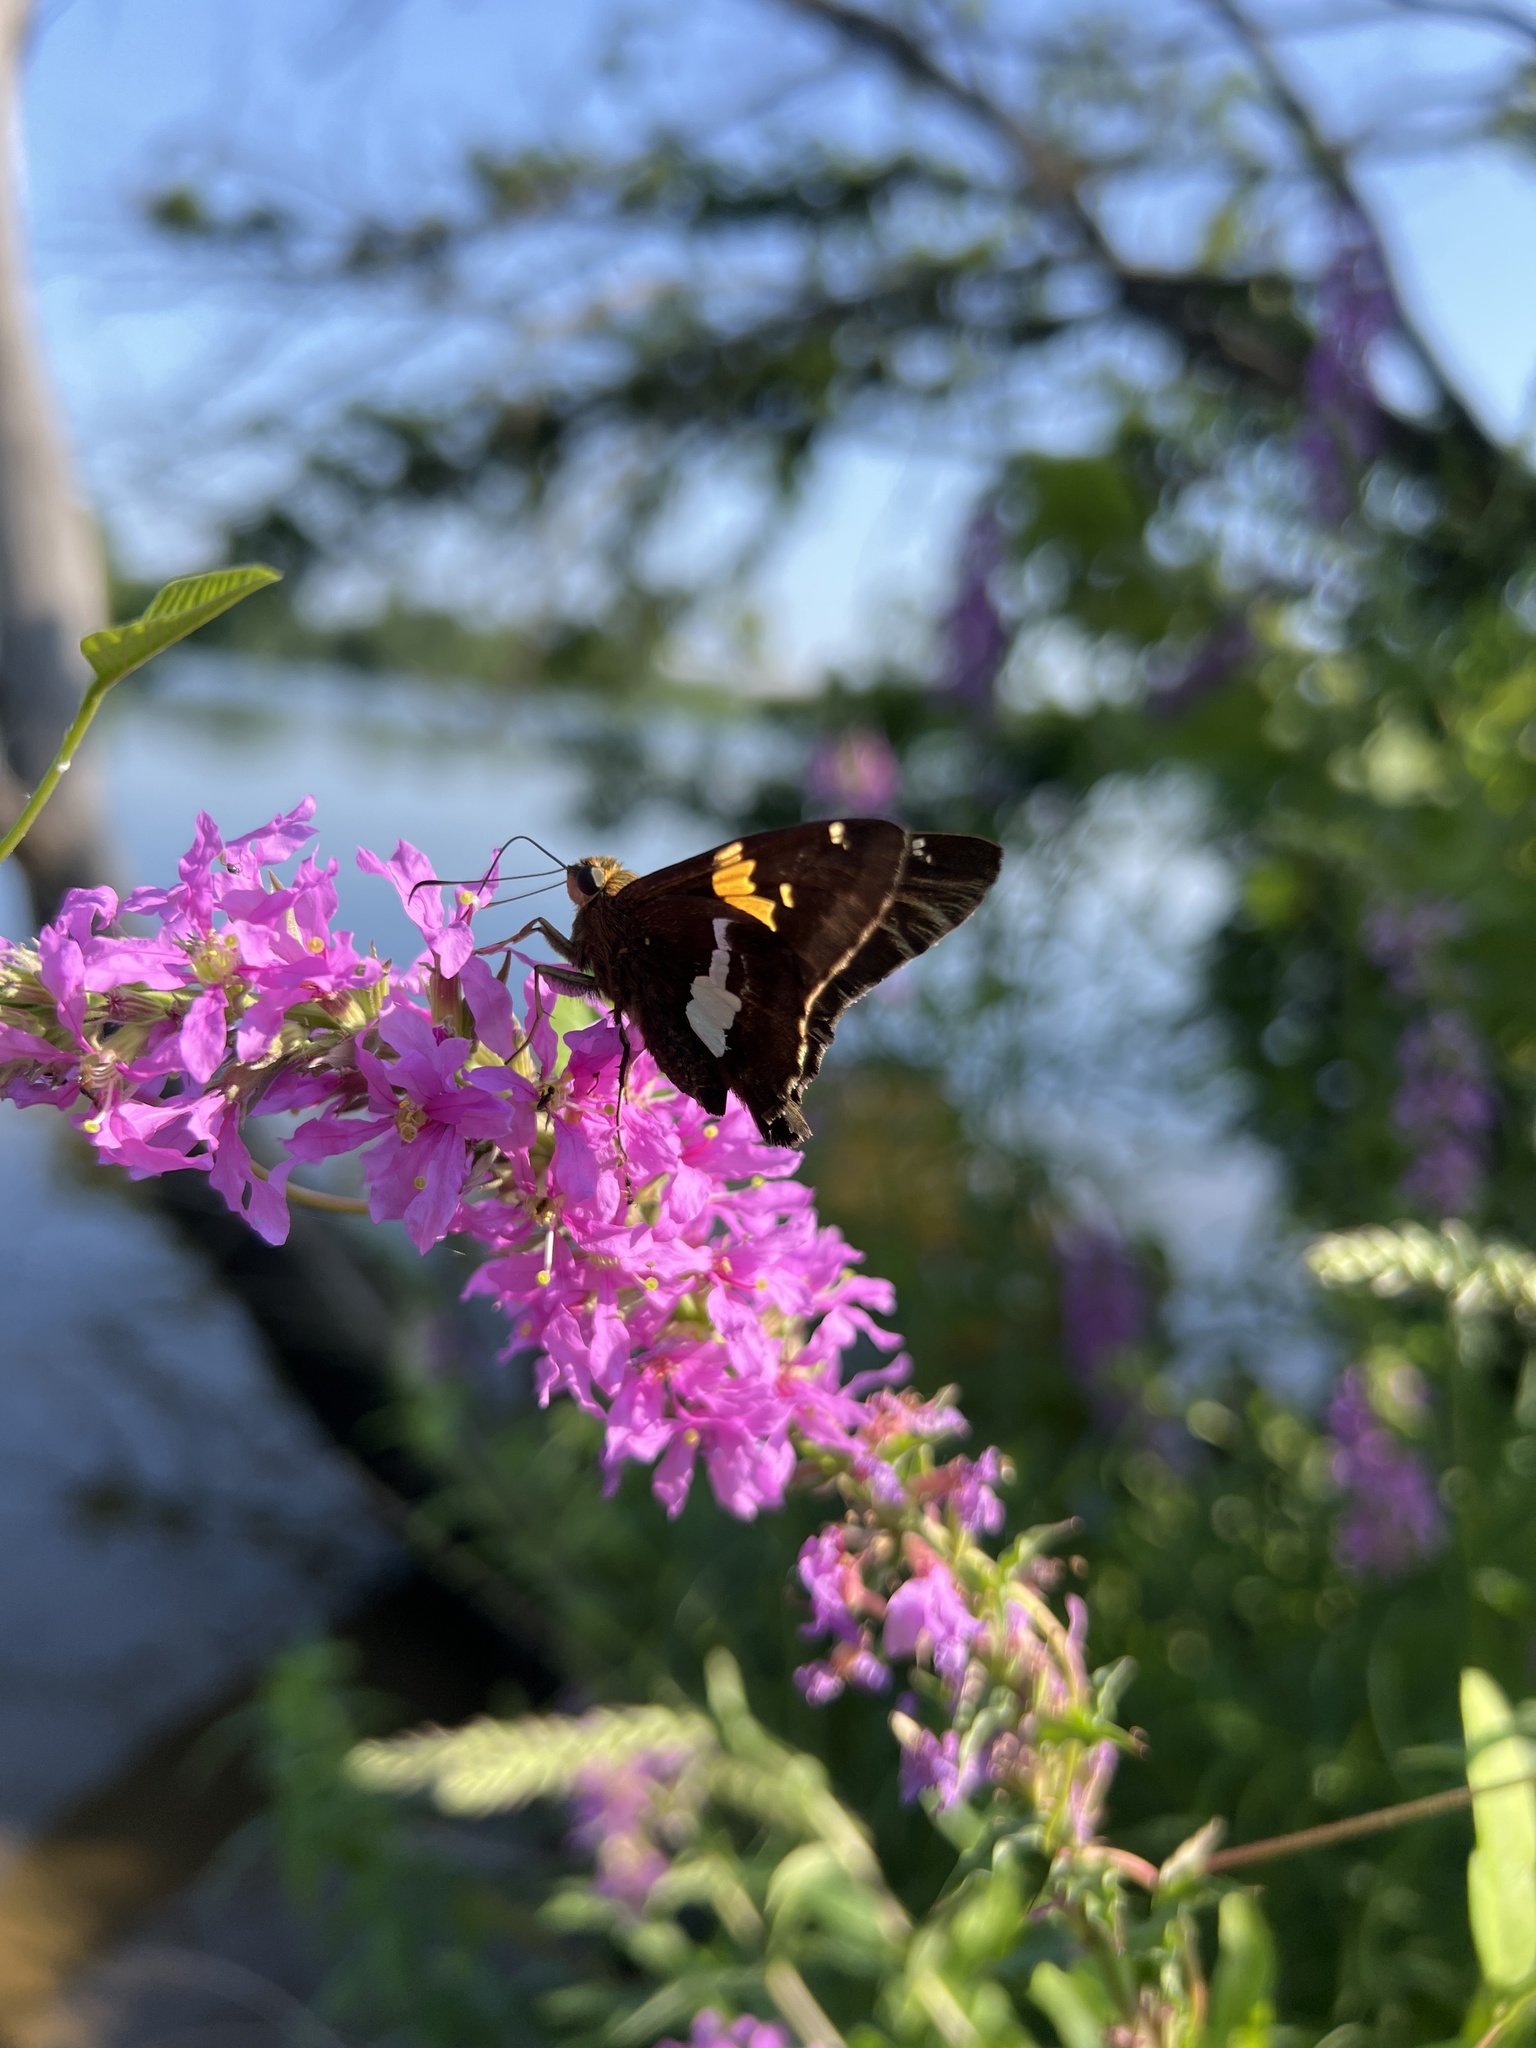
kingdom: Animalia
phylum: Arthropoda
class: Insecta
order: Lepidoptera
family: Hesperiidae
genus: Epargyreus
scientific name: Epargyreus clarus
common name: Silver-spotted skipper
